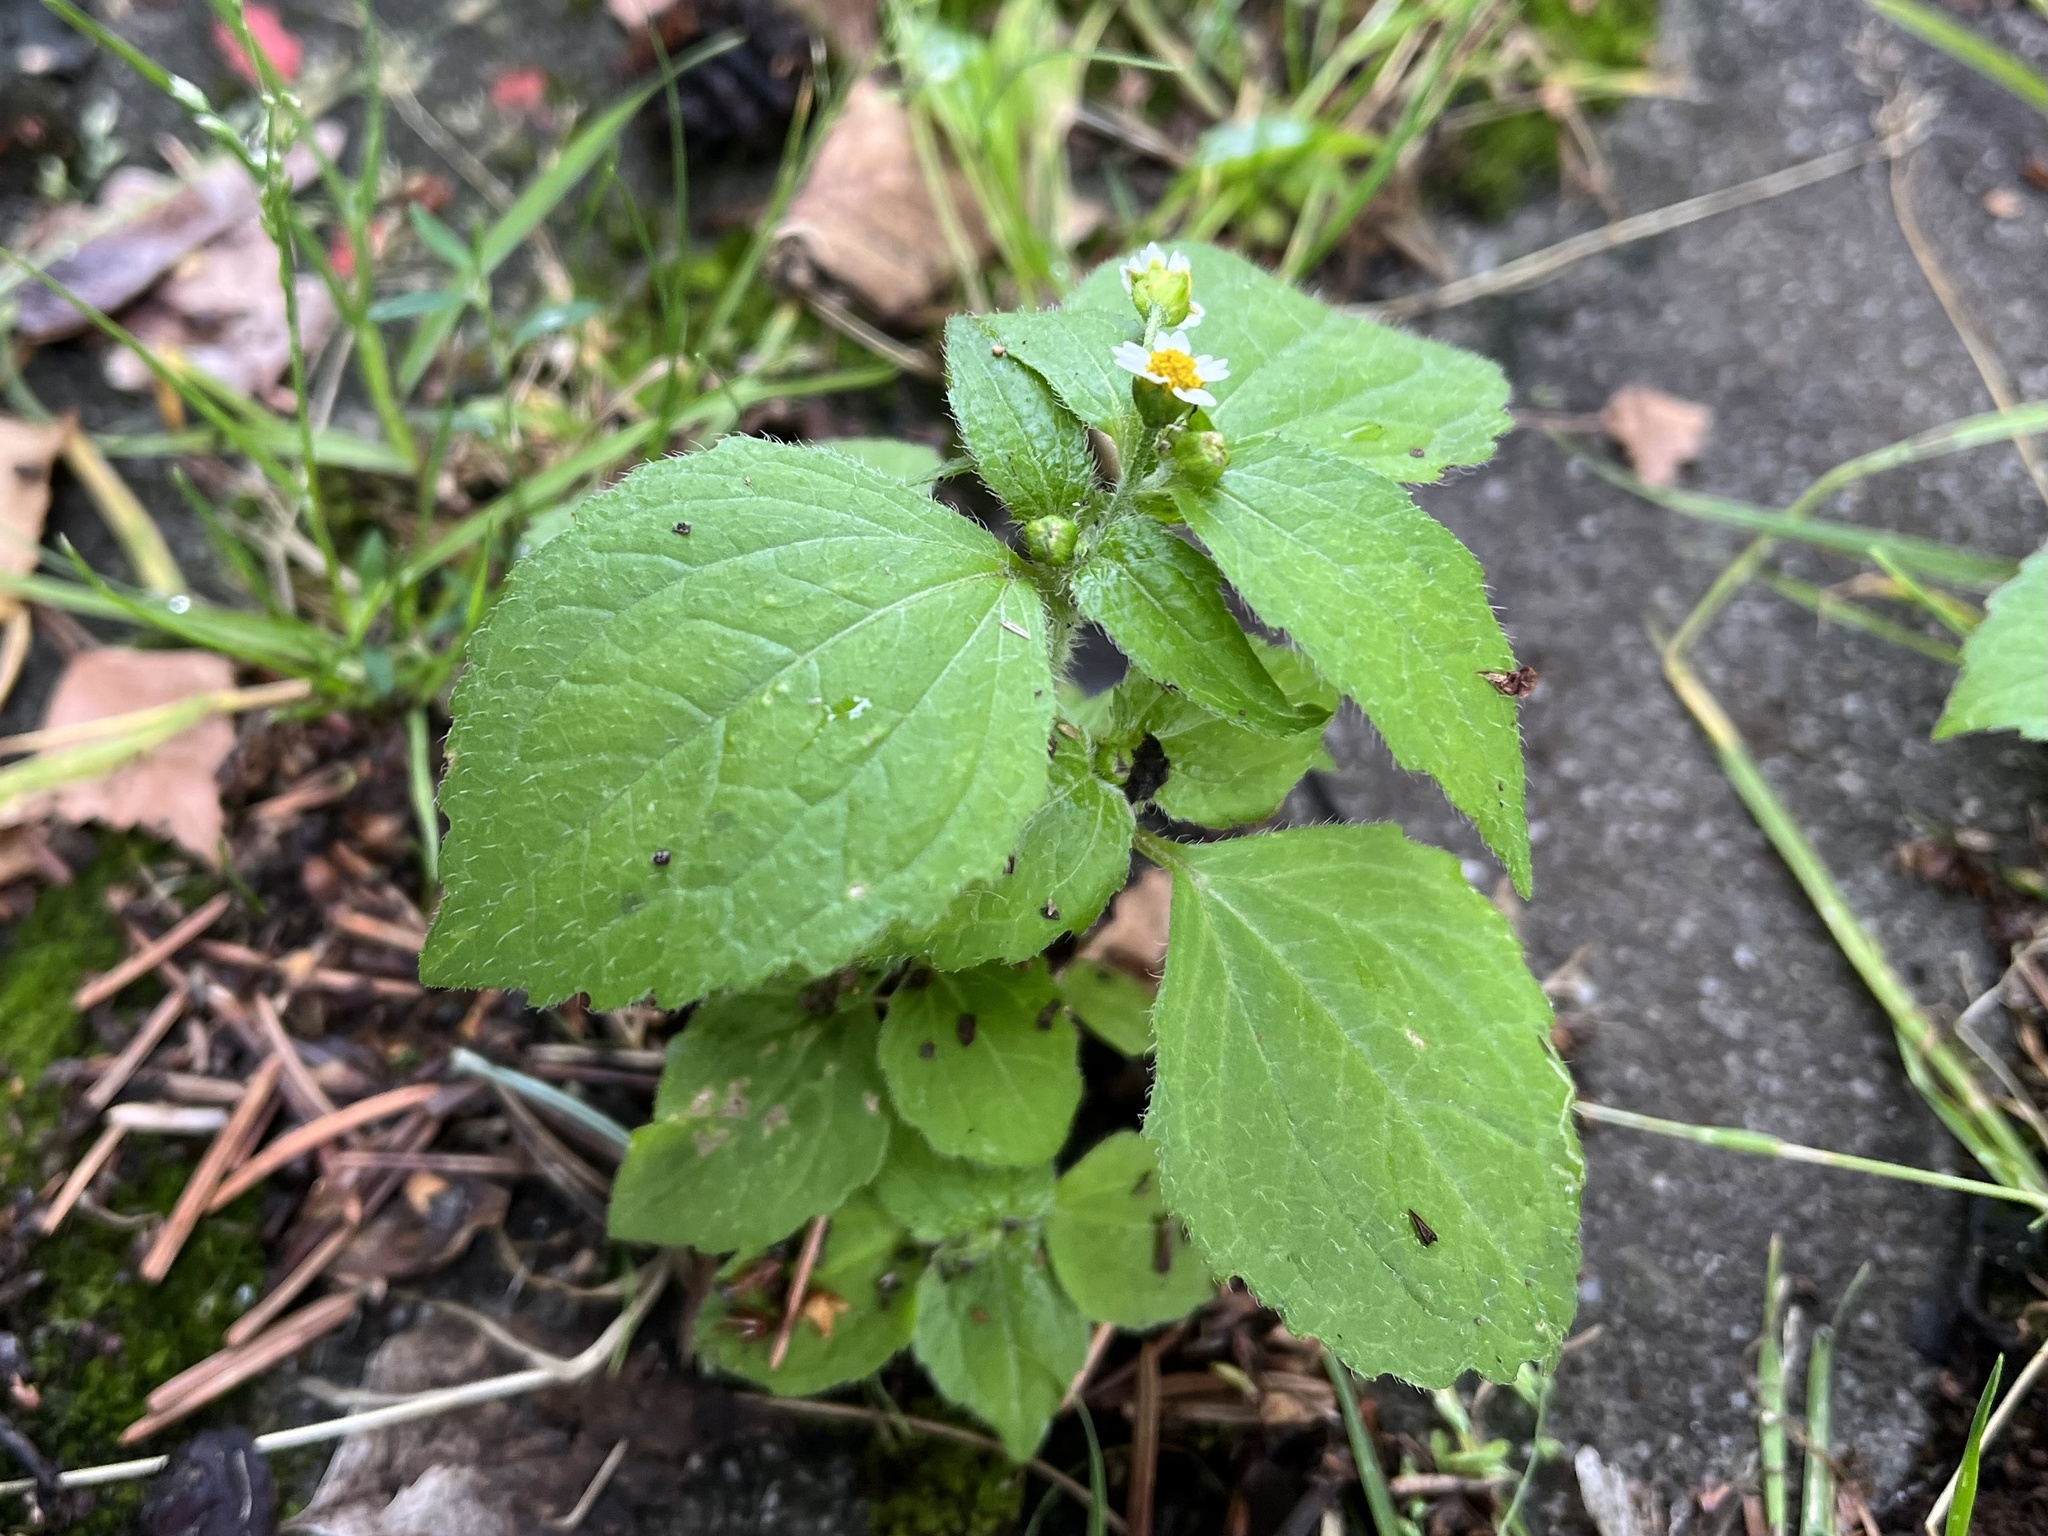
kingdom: Plantae
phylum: Tracheophyta
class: Magnoliopsida
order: Asterales
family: Asteraceae
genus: Galinsoga
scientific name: Galinsoga quadriradiata
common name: Shaggy soldier
